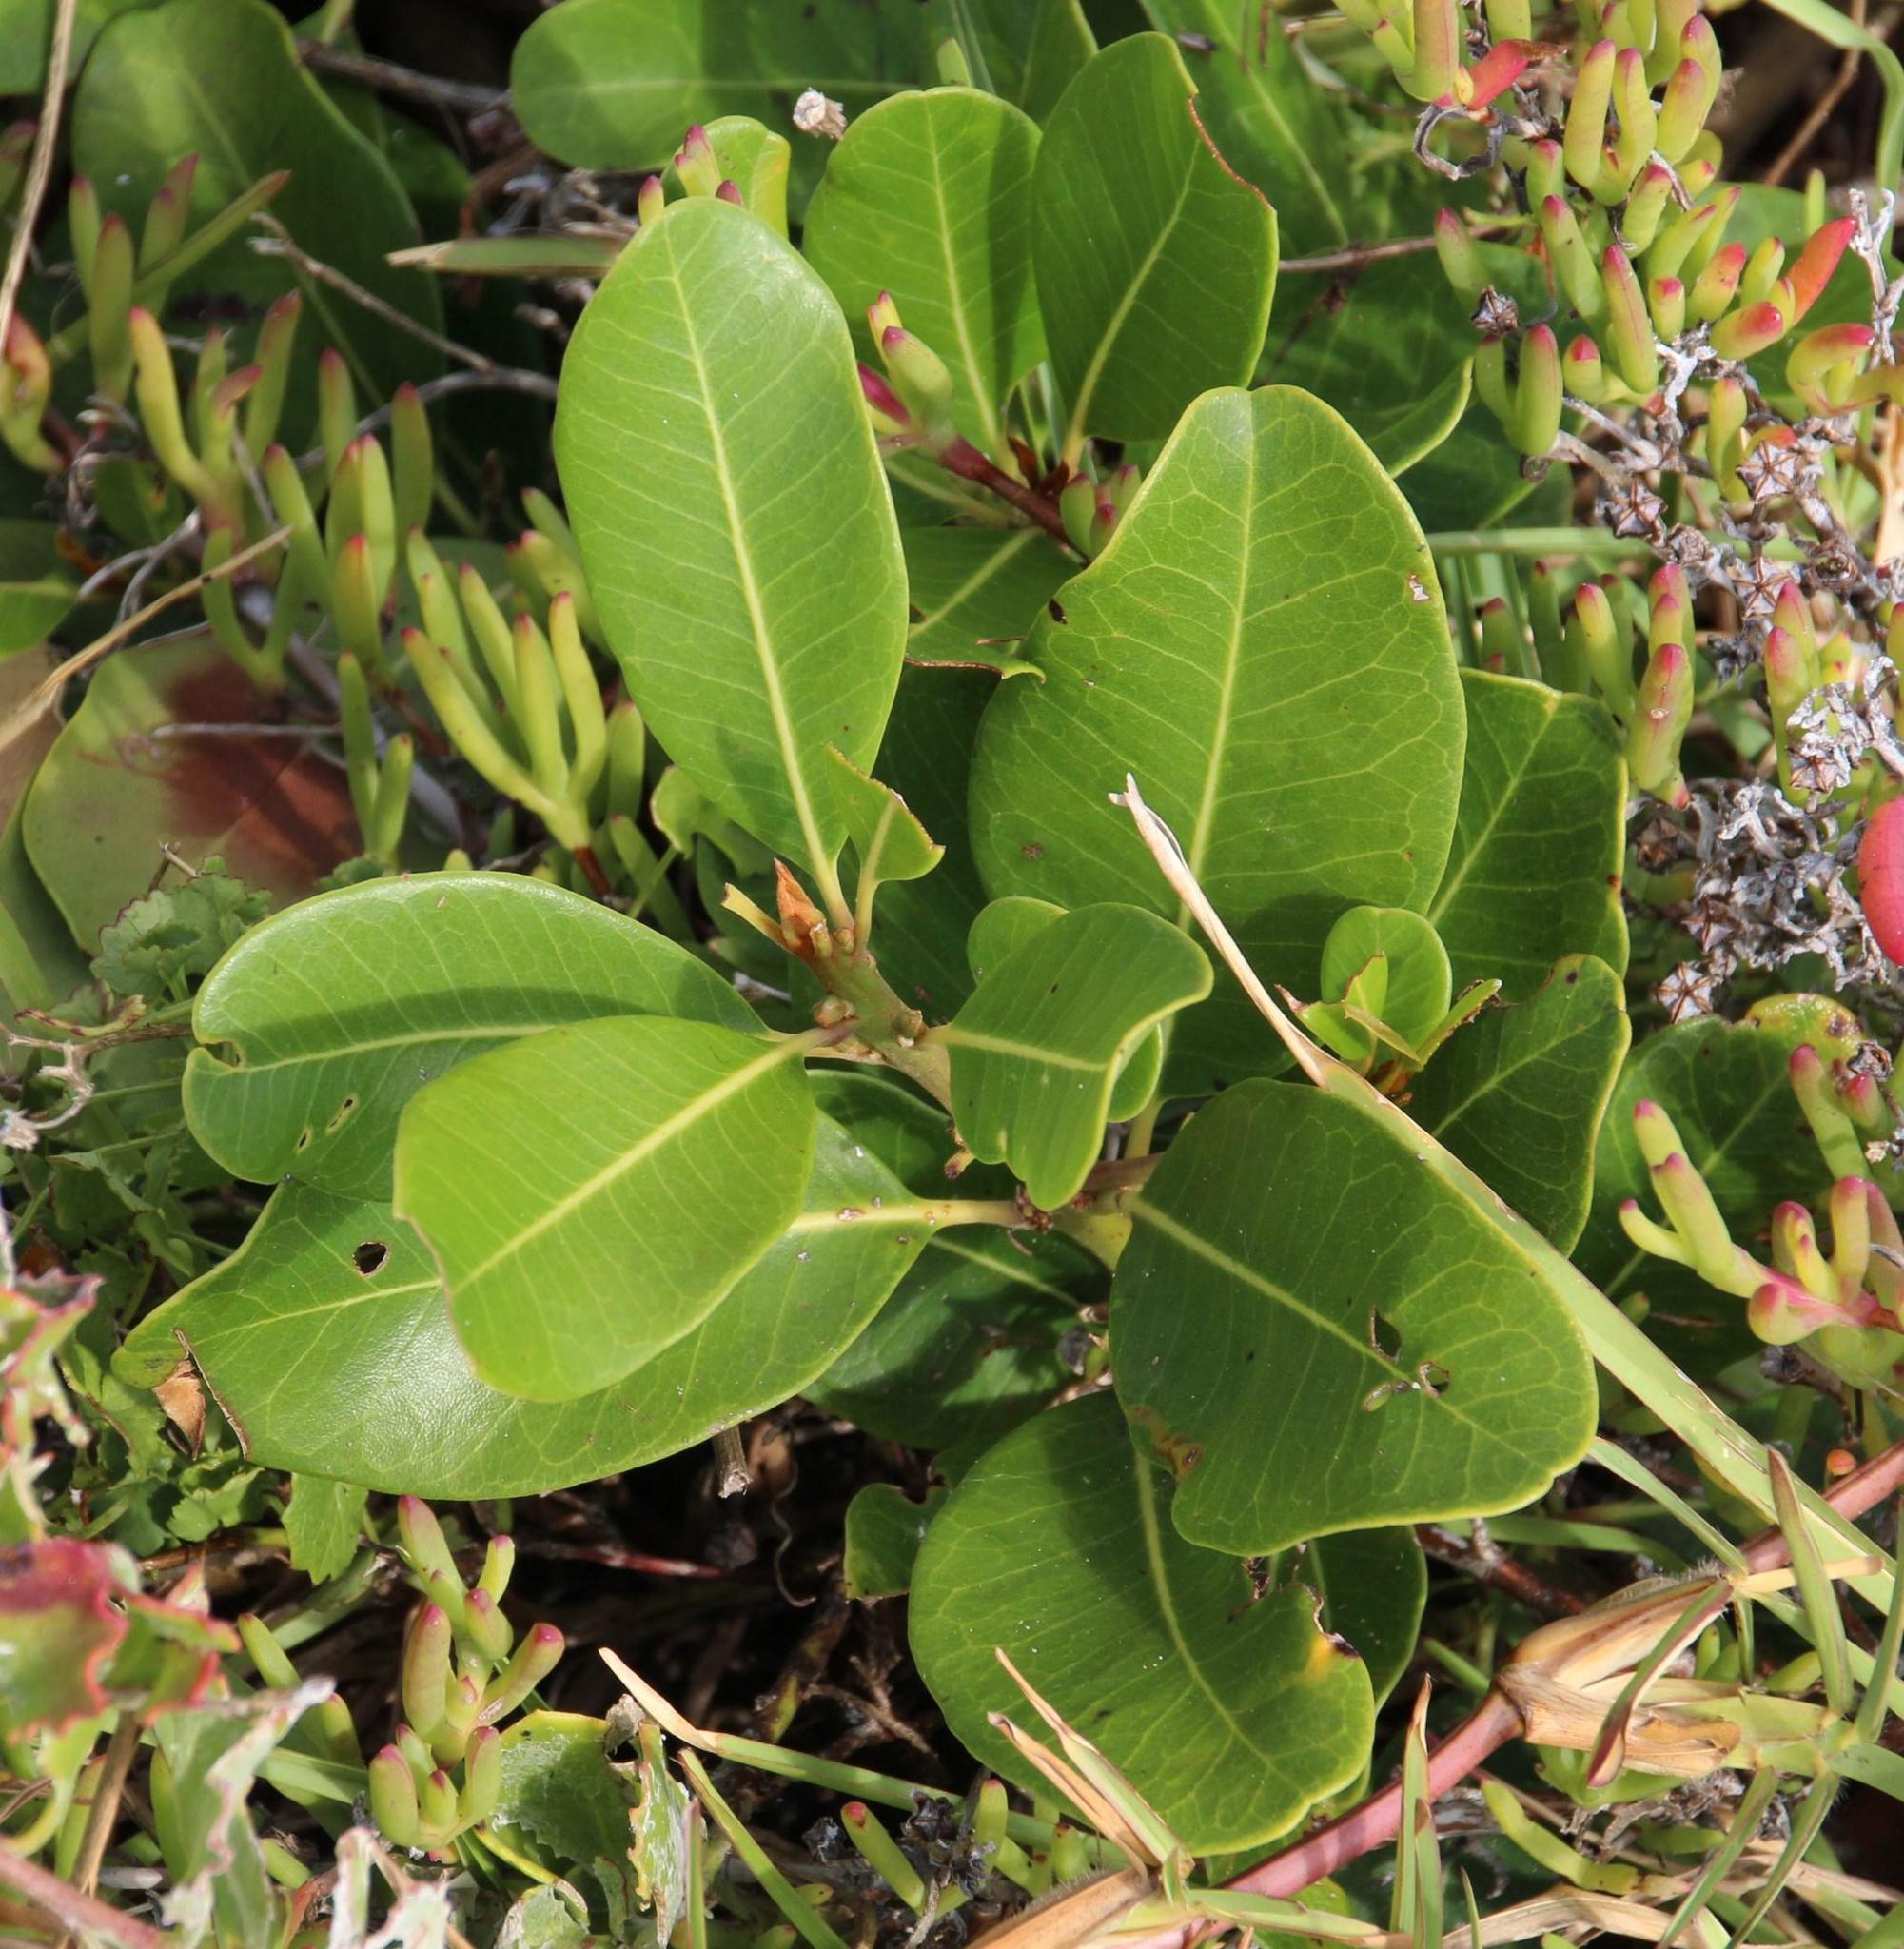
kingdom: Plantae
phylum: Tracheophyta
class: Magnoliopsida
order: Ericales
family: Sapotaceae
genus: Sideroxylon
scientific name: Sideroxylon inerme
